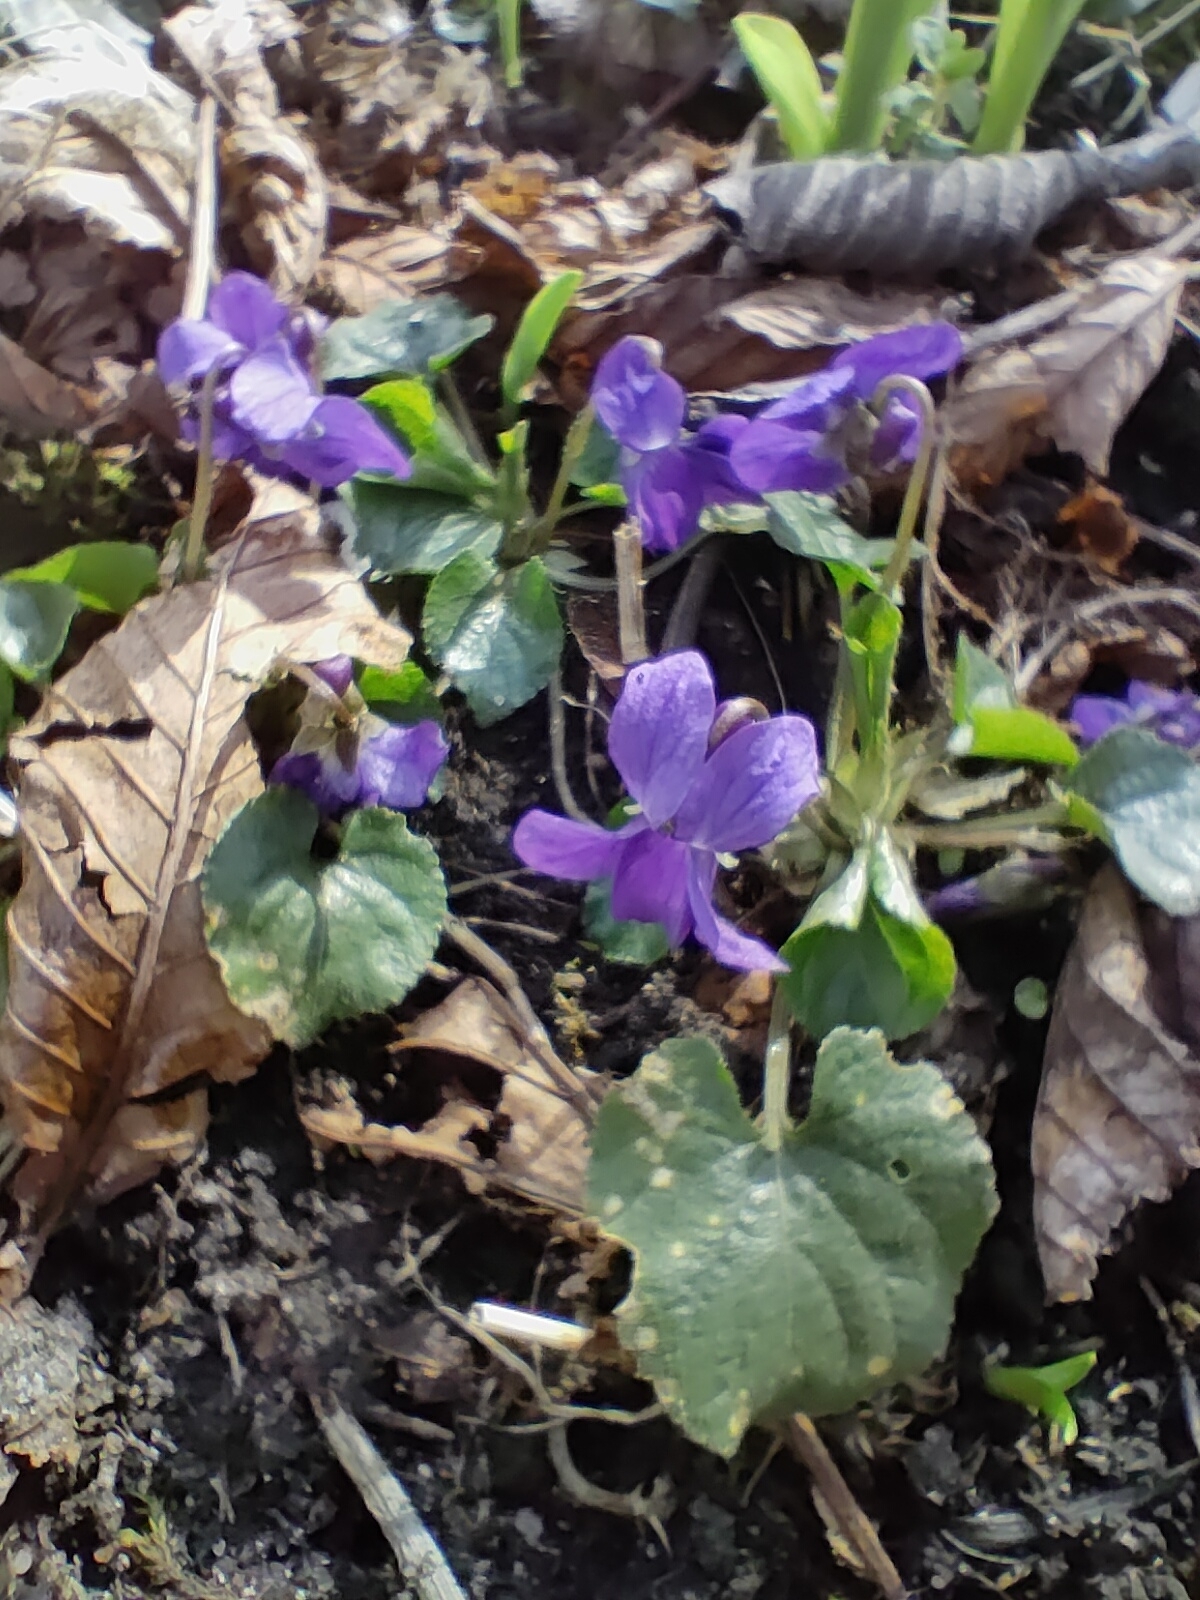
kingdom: Plantae
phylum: Tracheophyta
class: Magnoliopsida
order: Malpighiales
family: Violaceae
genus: Viola
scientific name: Viola odorata
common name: Sweet violet
